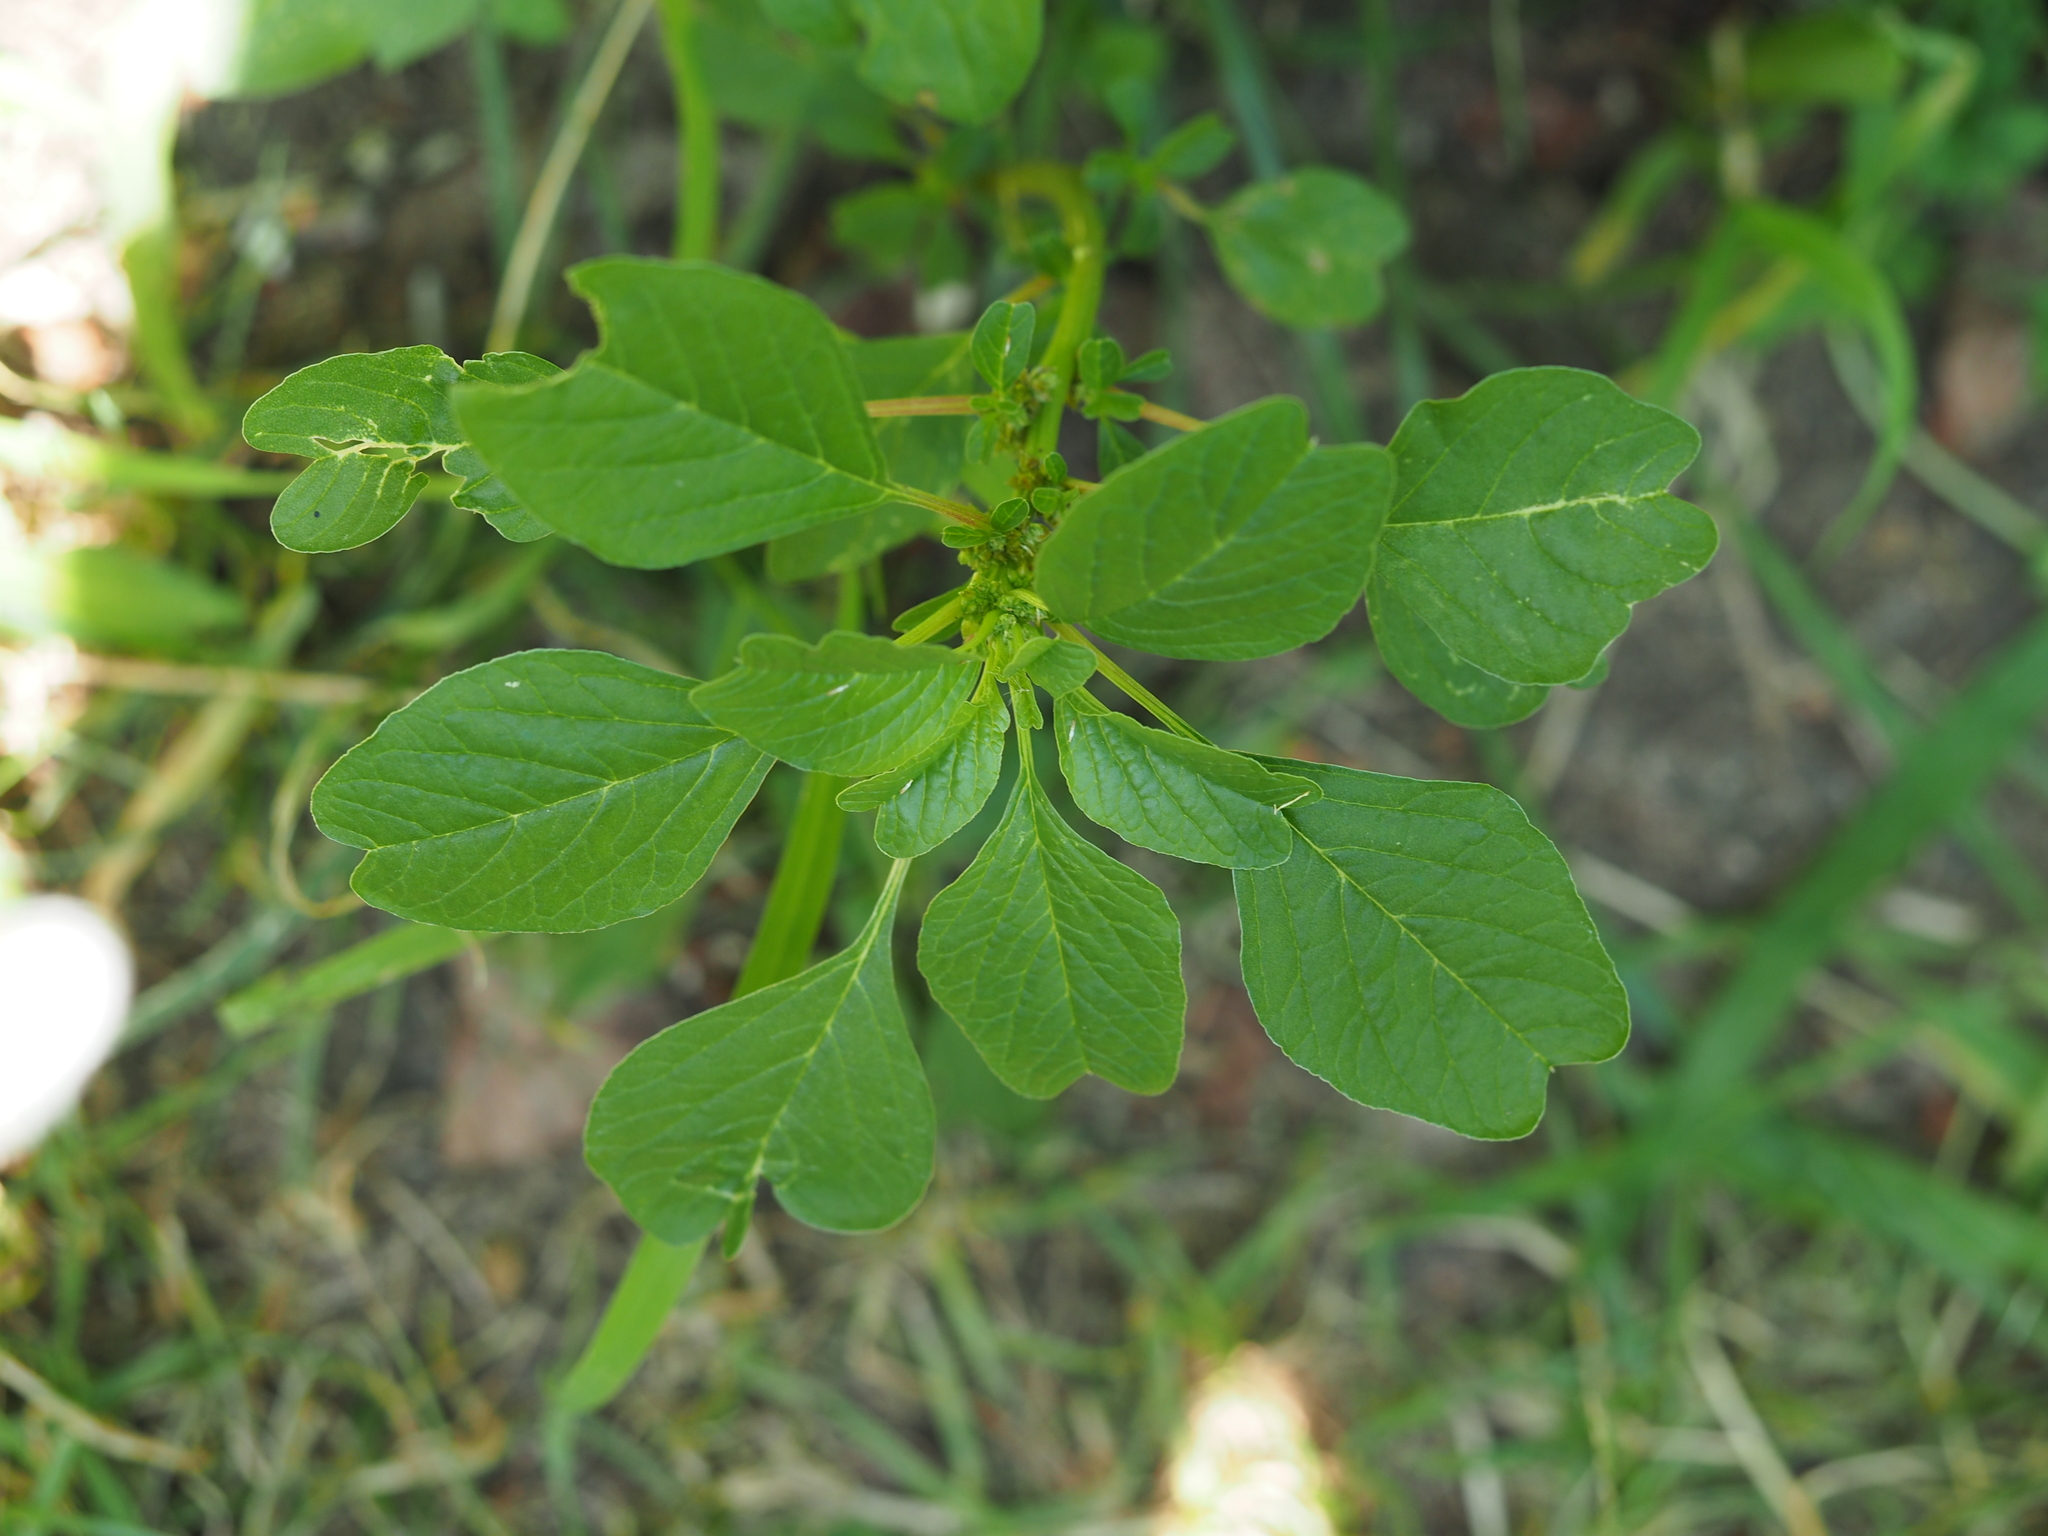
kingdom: Plantae
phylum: Tracheophyta
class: Magnoliopsida
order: Caryophyllales
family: Amaranthaceae
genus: Amaranthus
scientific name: Amaranthus blitum
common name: Purple amaranth
